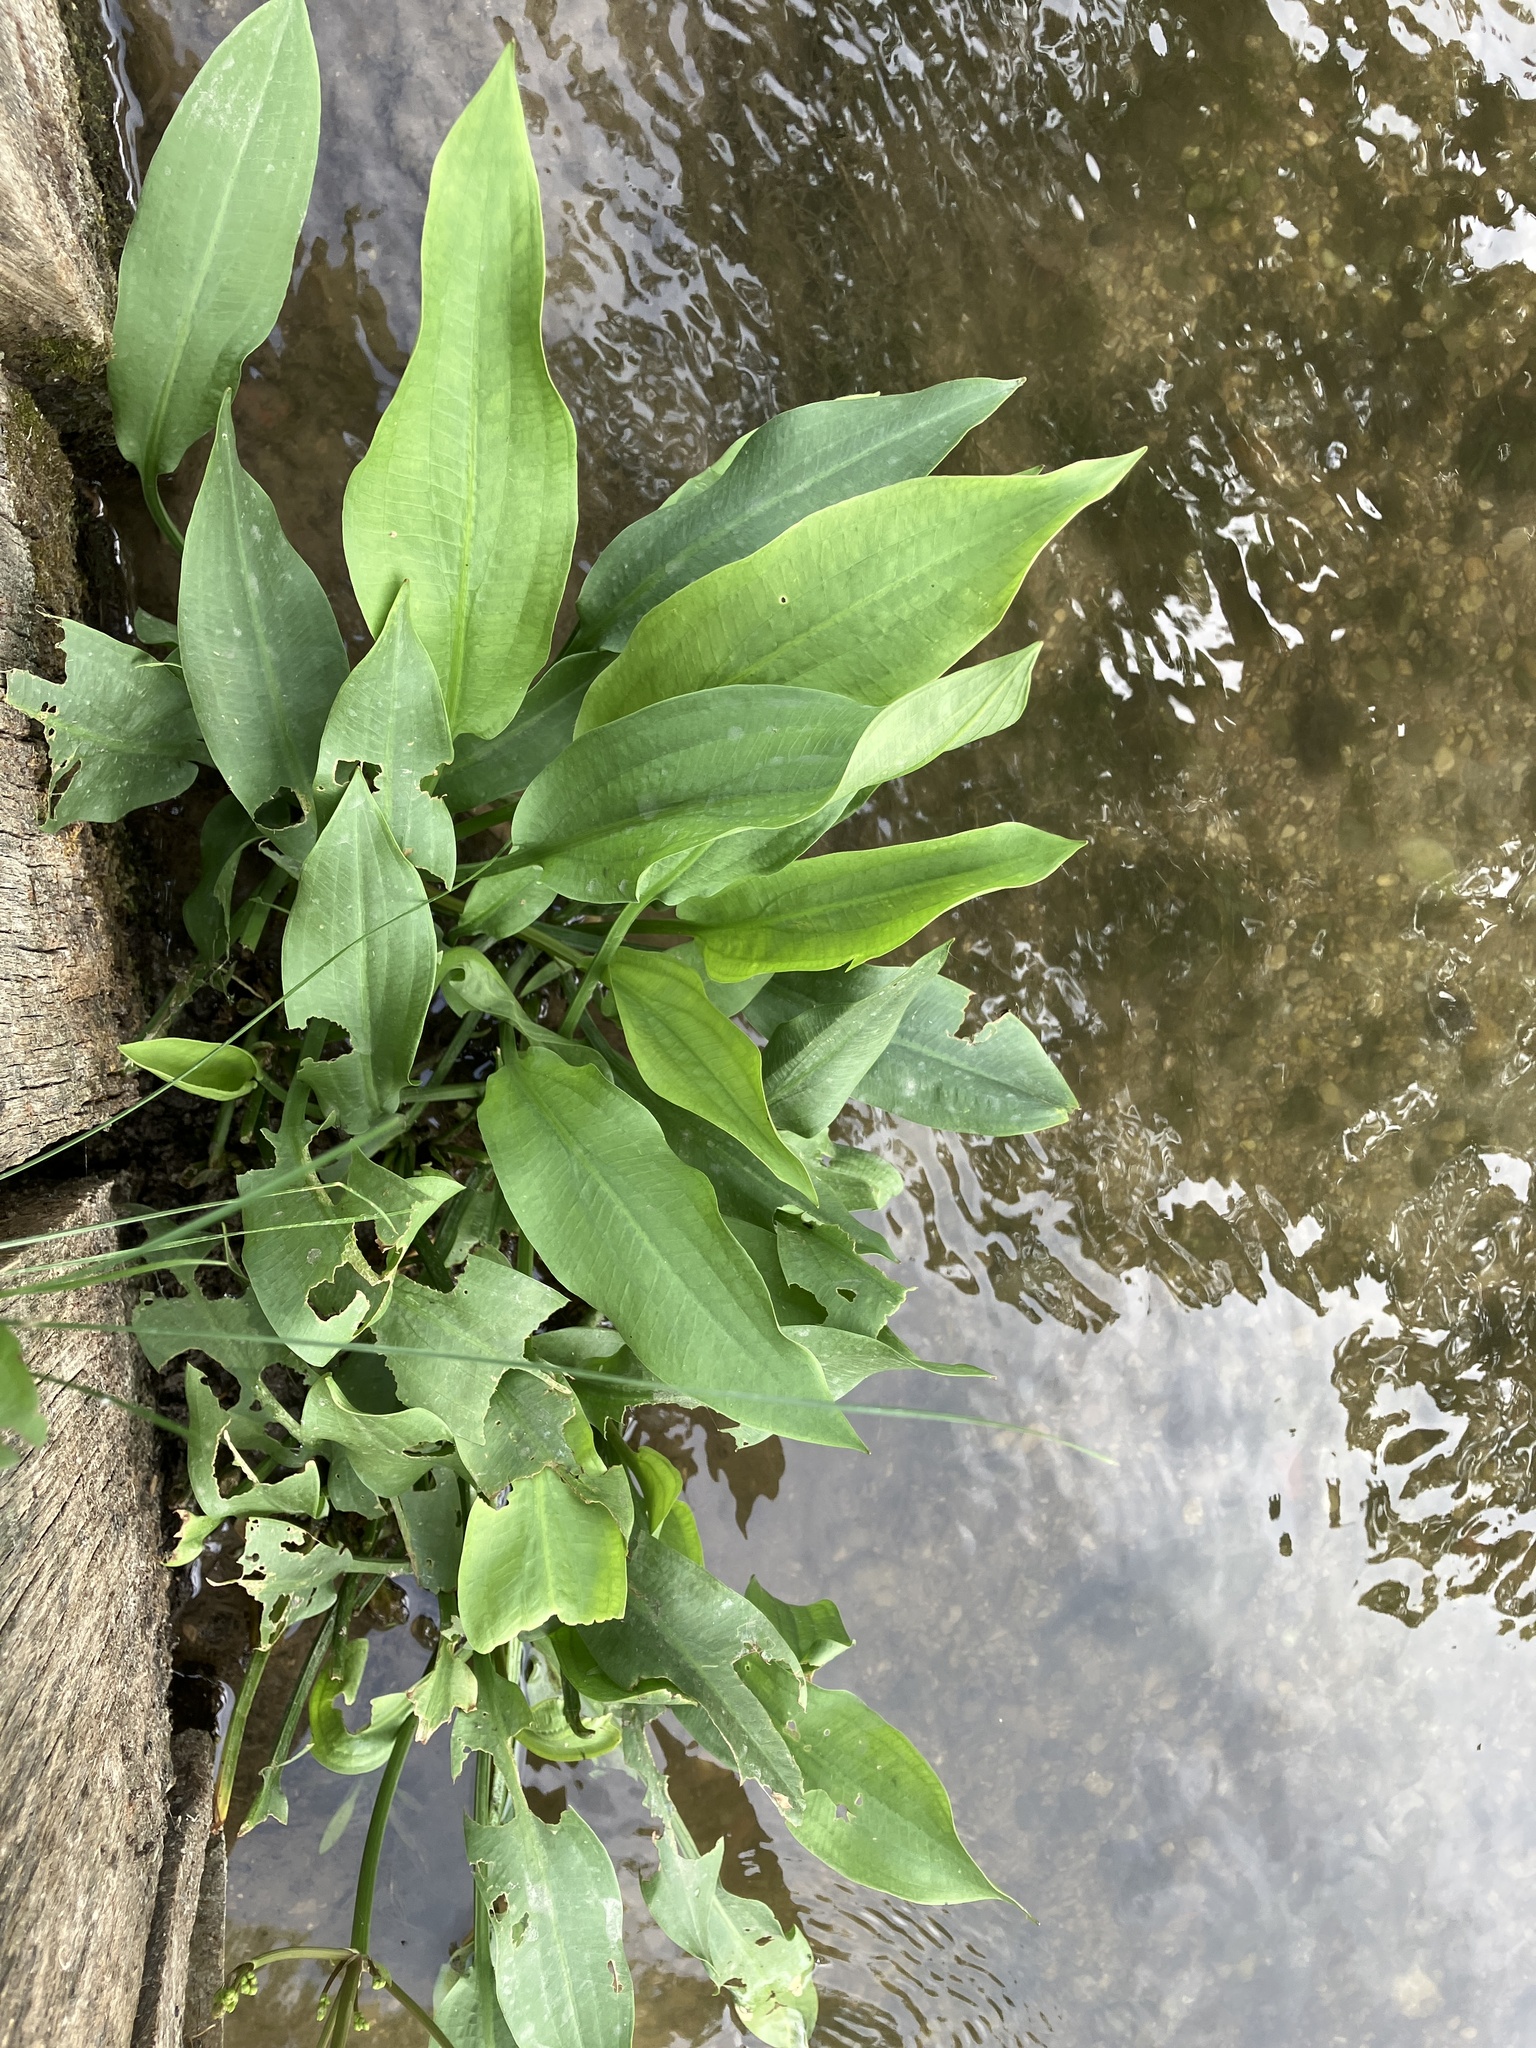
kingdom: Plantae
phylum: Tracheophyta
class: Liliopsida
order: Alismatales
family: Alismataceae
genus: Alisma
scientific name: Alisma plantago-aquatica
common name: Water-plantain
